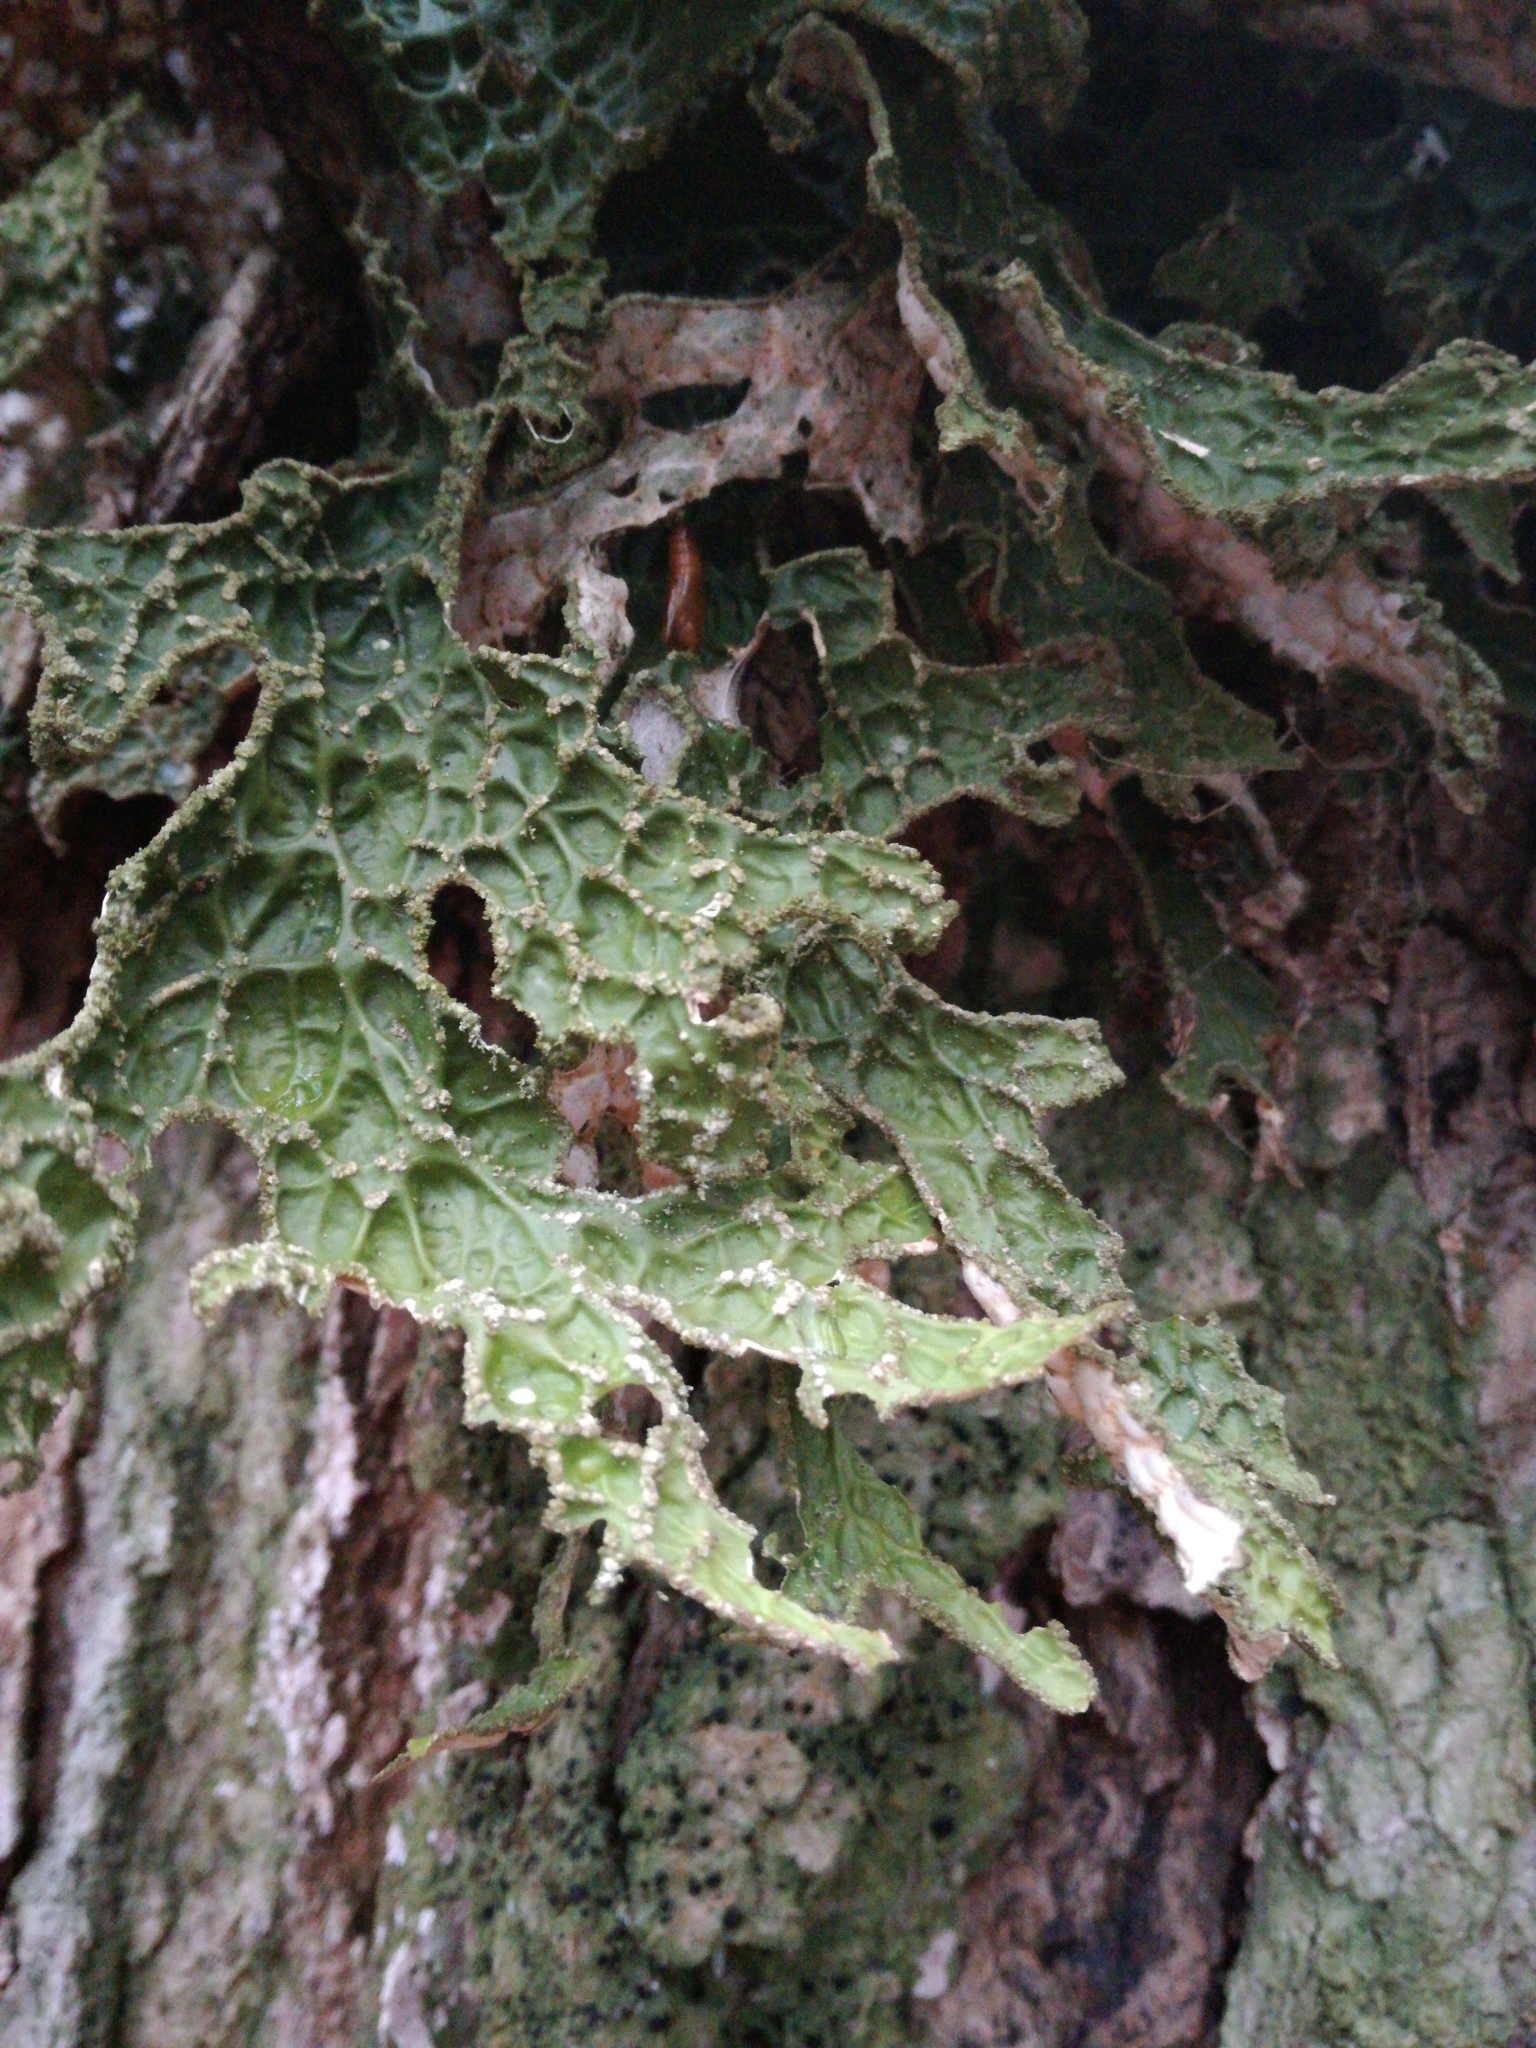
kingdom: Fungi
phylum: Ascomycota
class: Lecanoromycetes
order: Peltigerales
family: Lobariaceae
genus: Lobaria
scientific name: Lobaria pulmonaria
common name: Lungwort
